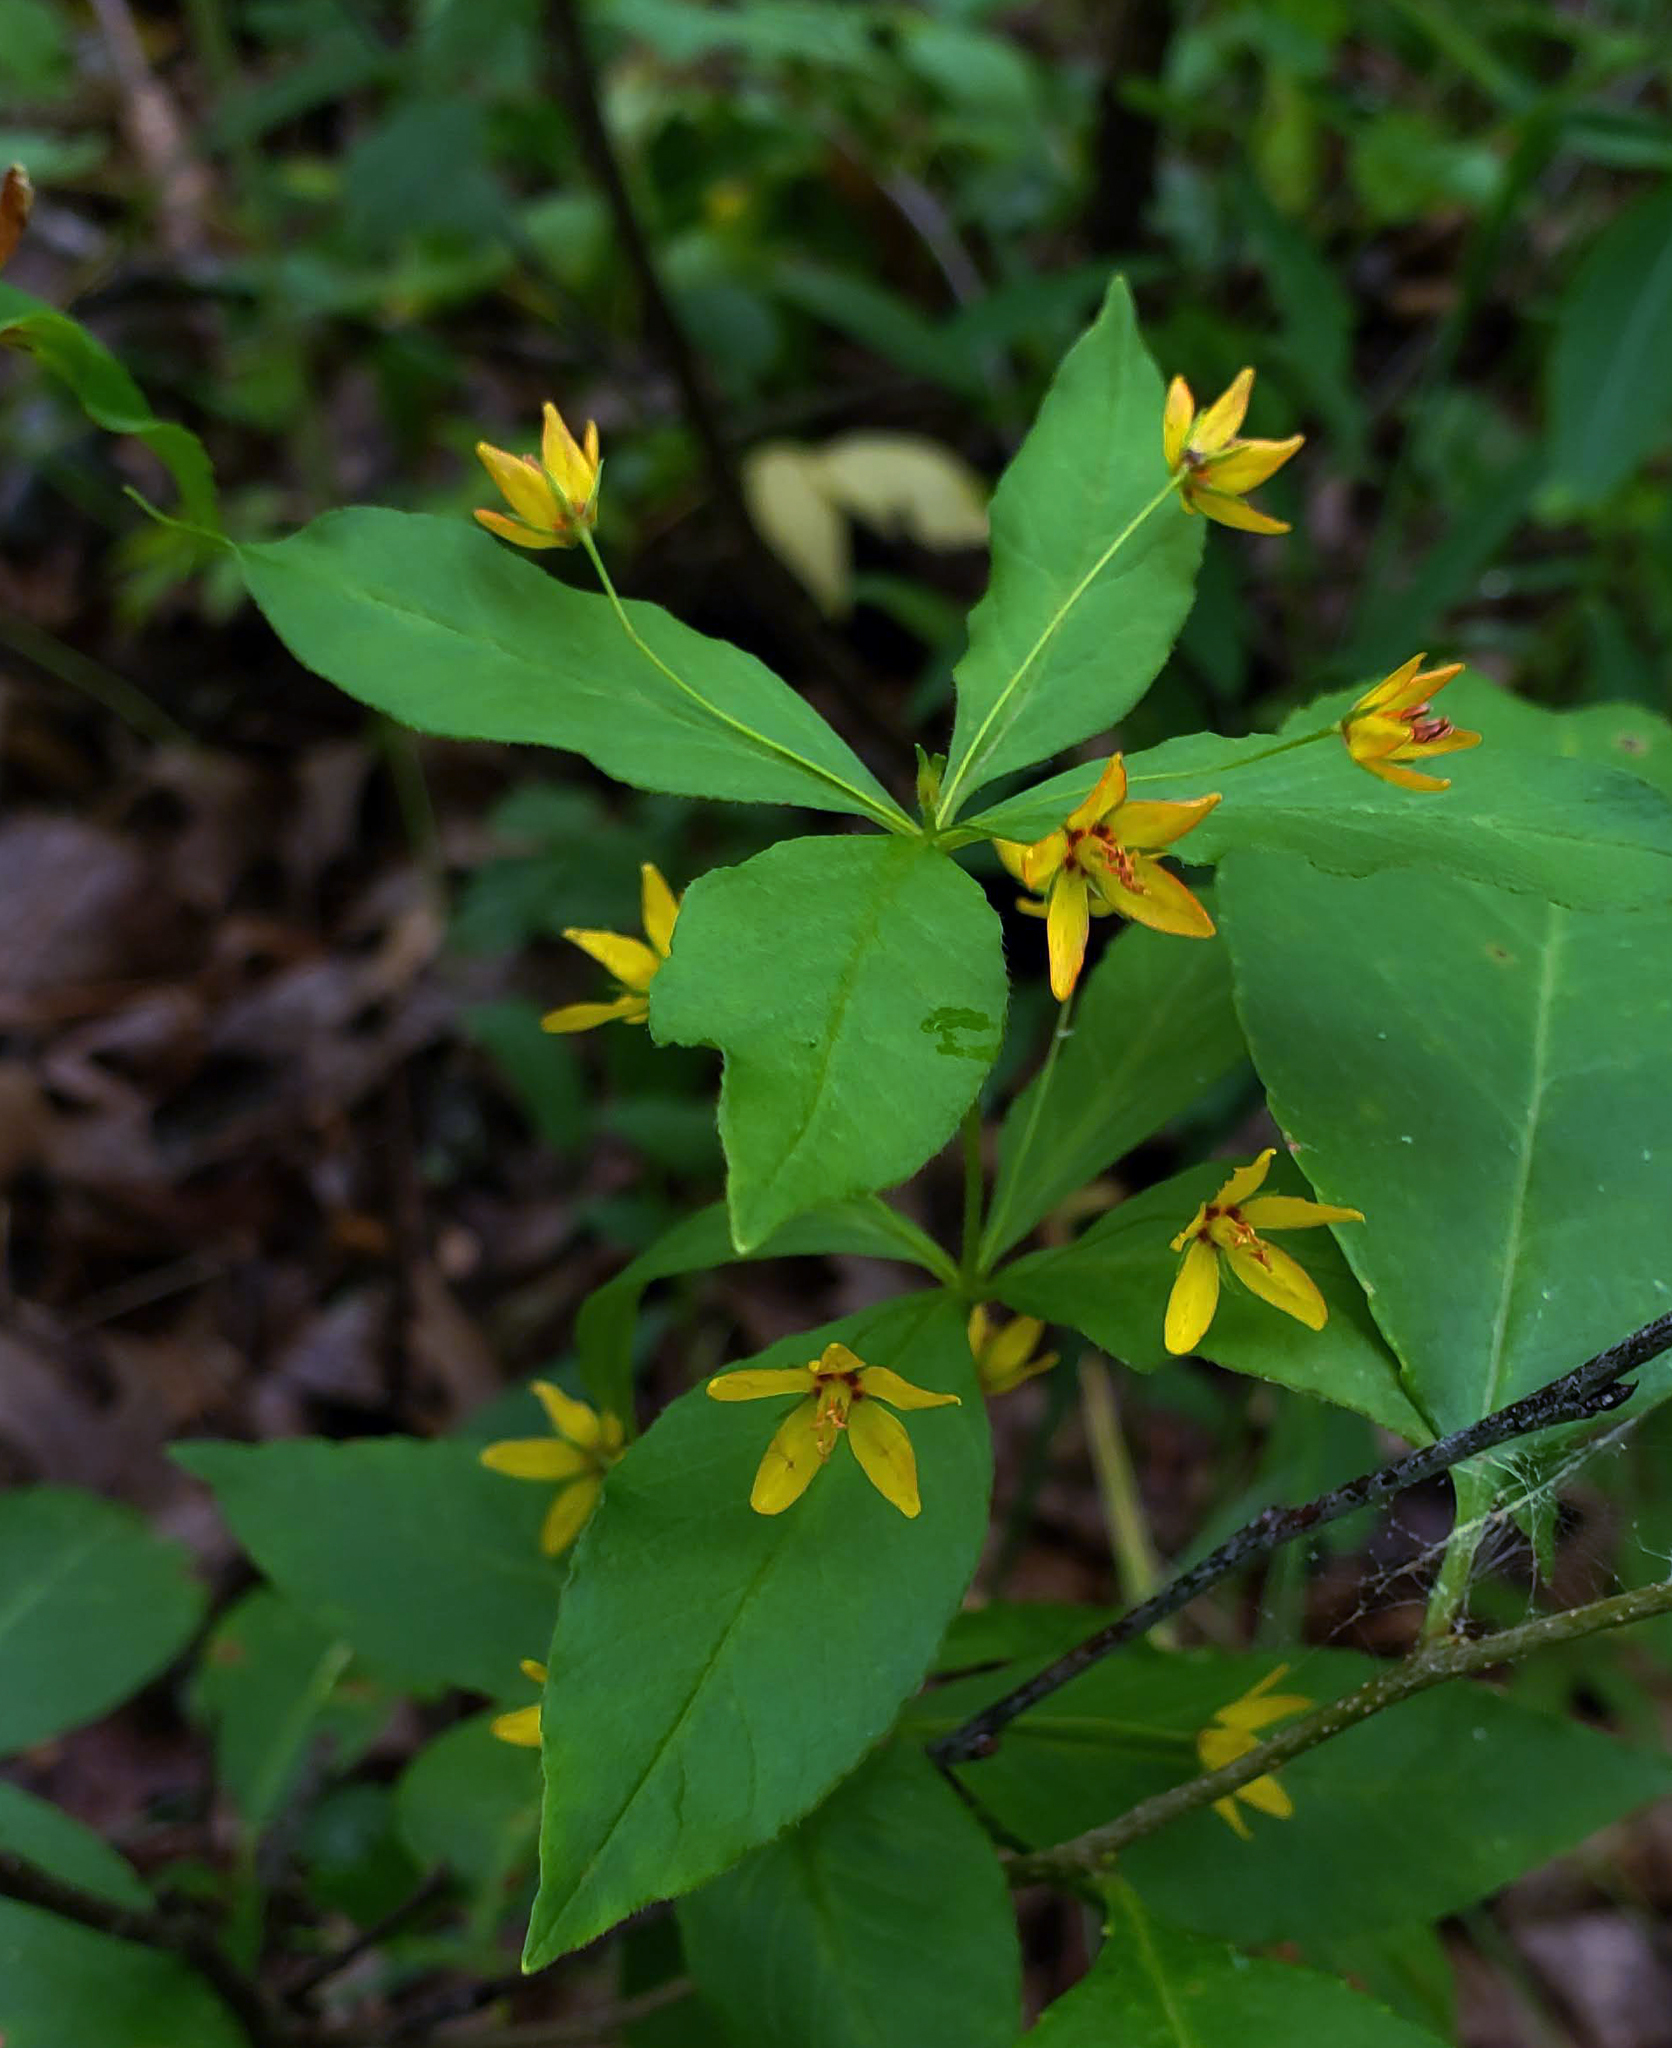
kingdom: Plantae
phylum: Tracheophyta
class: Magnoliopsida
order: Ericales
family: Primulaceae
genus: Lysimachia
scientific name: Lysimachia quadrifolia
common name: Whorled loosestrife
